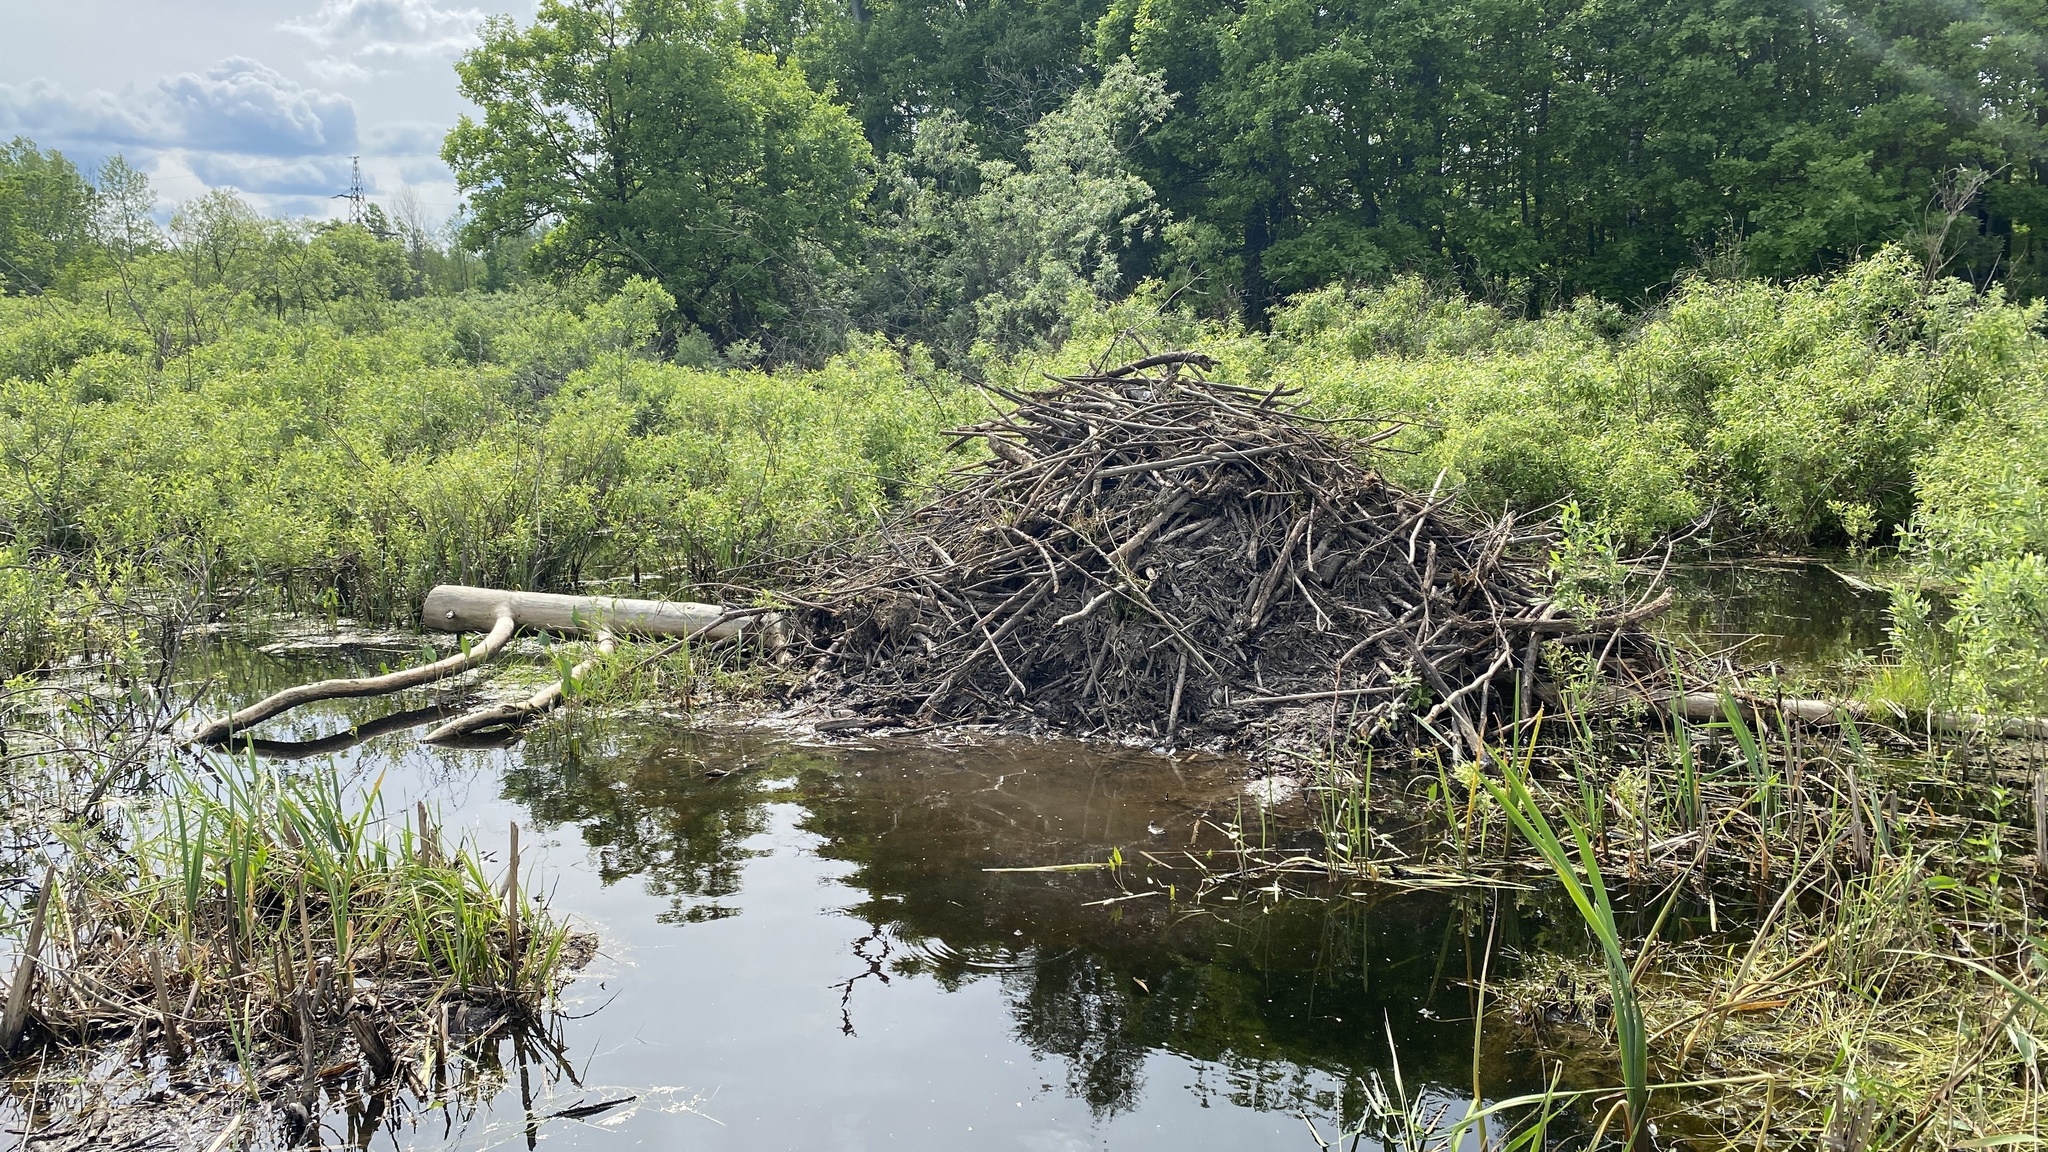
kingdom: Animalia
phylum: Chordata
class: Mammalia
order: Rodentia
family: Castoridae
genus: Castor
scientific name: Castor fiber
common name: Eurasian beaver
